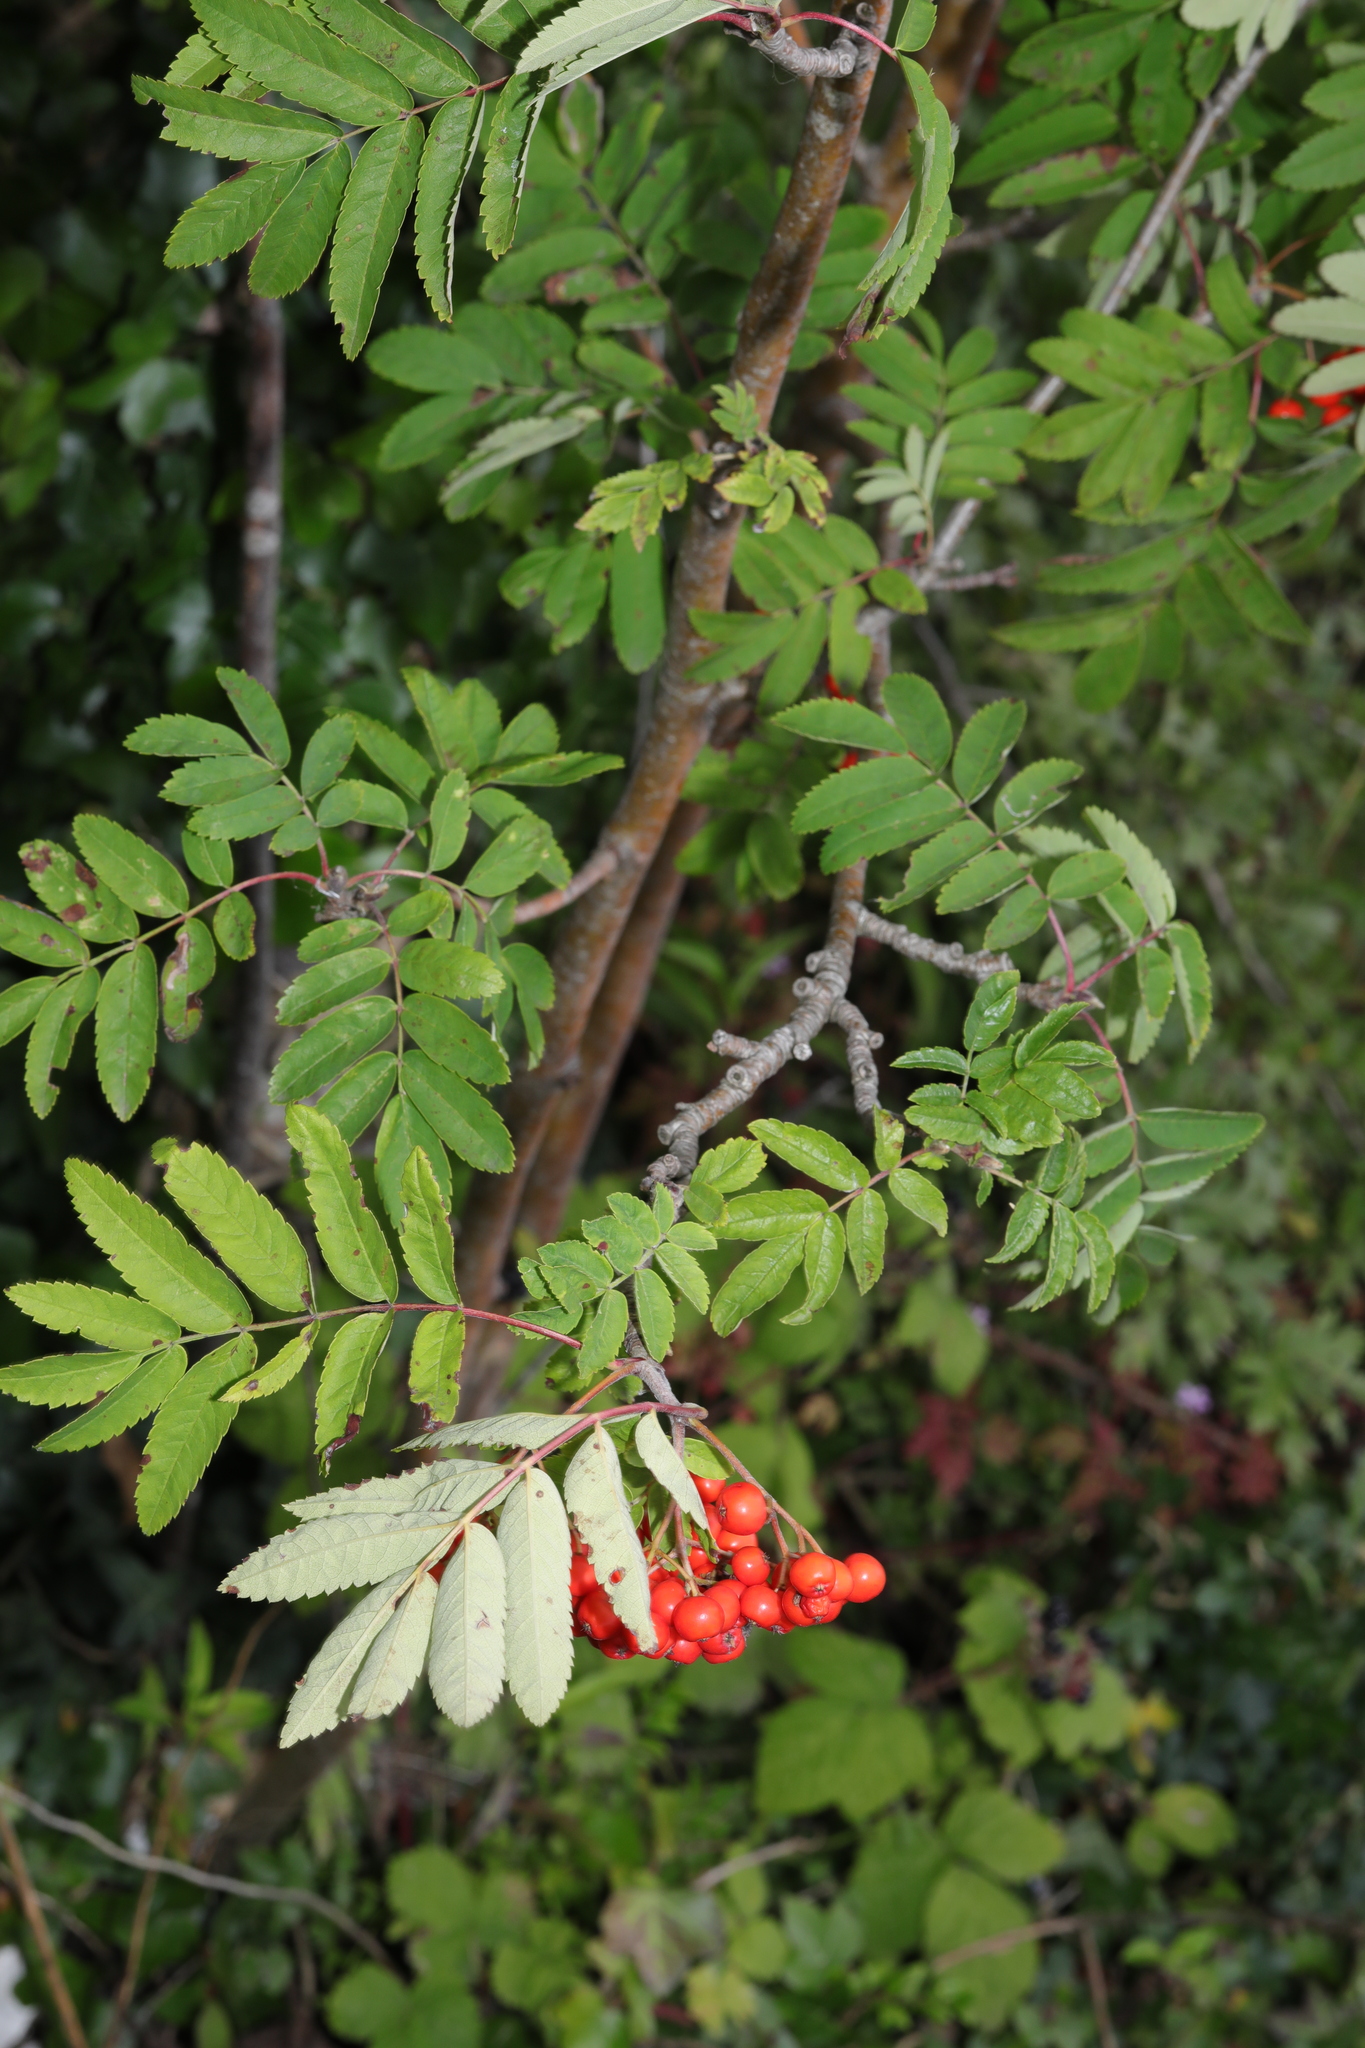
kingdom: Plantae
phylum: Tracheophyta
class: Magnoliopsida
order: Rosales
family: Rosaceae
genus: Sorbus
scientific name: Sorbus aucuparia
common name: Rowan
